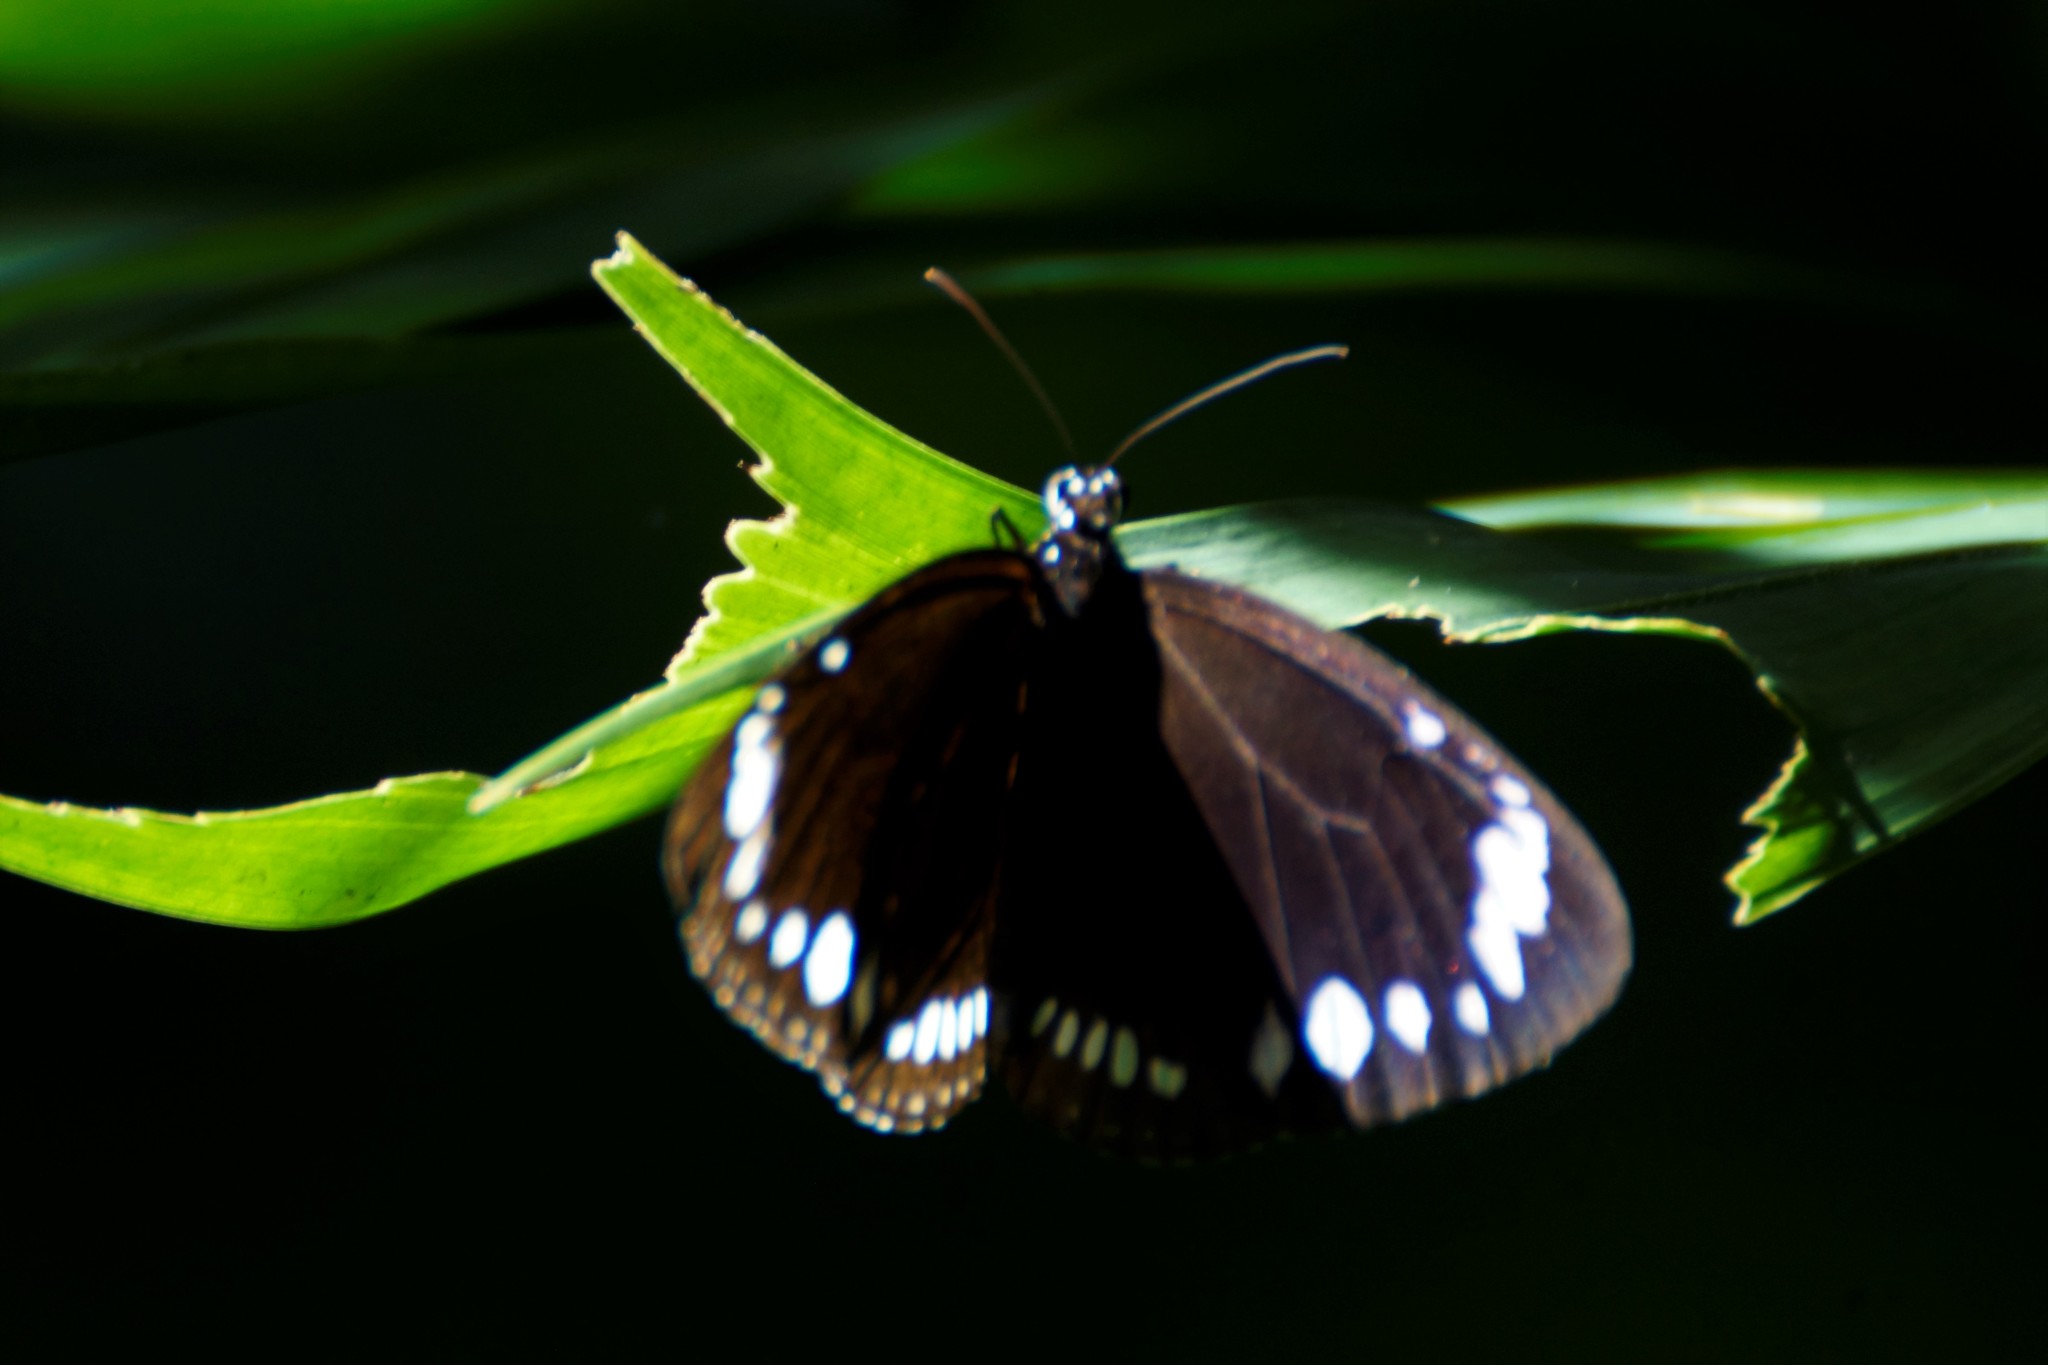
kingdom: Animalia
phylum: Arthropoda
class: Insecta
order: Lepidoptera
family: Nymphalidae
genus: Euploea
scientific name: Euploea darchia
